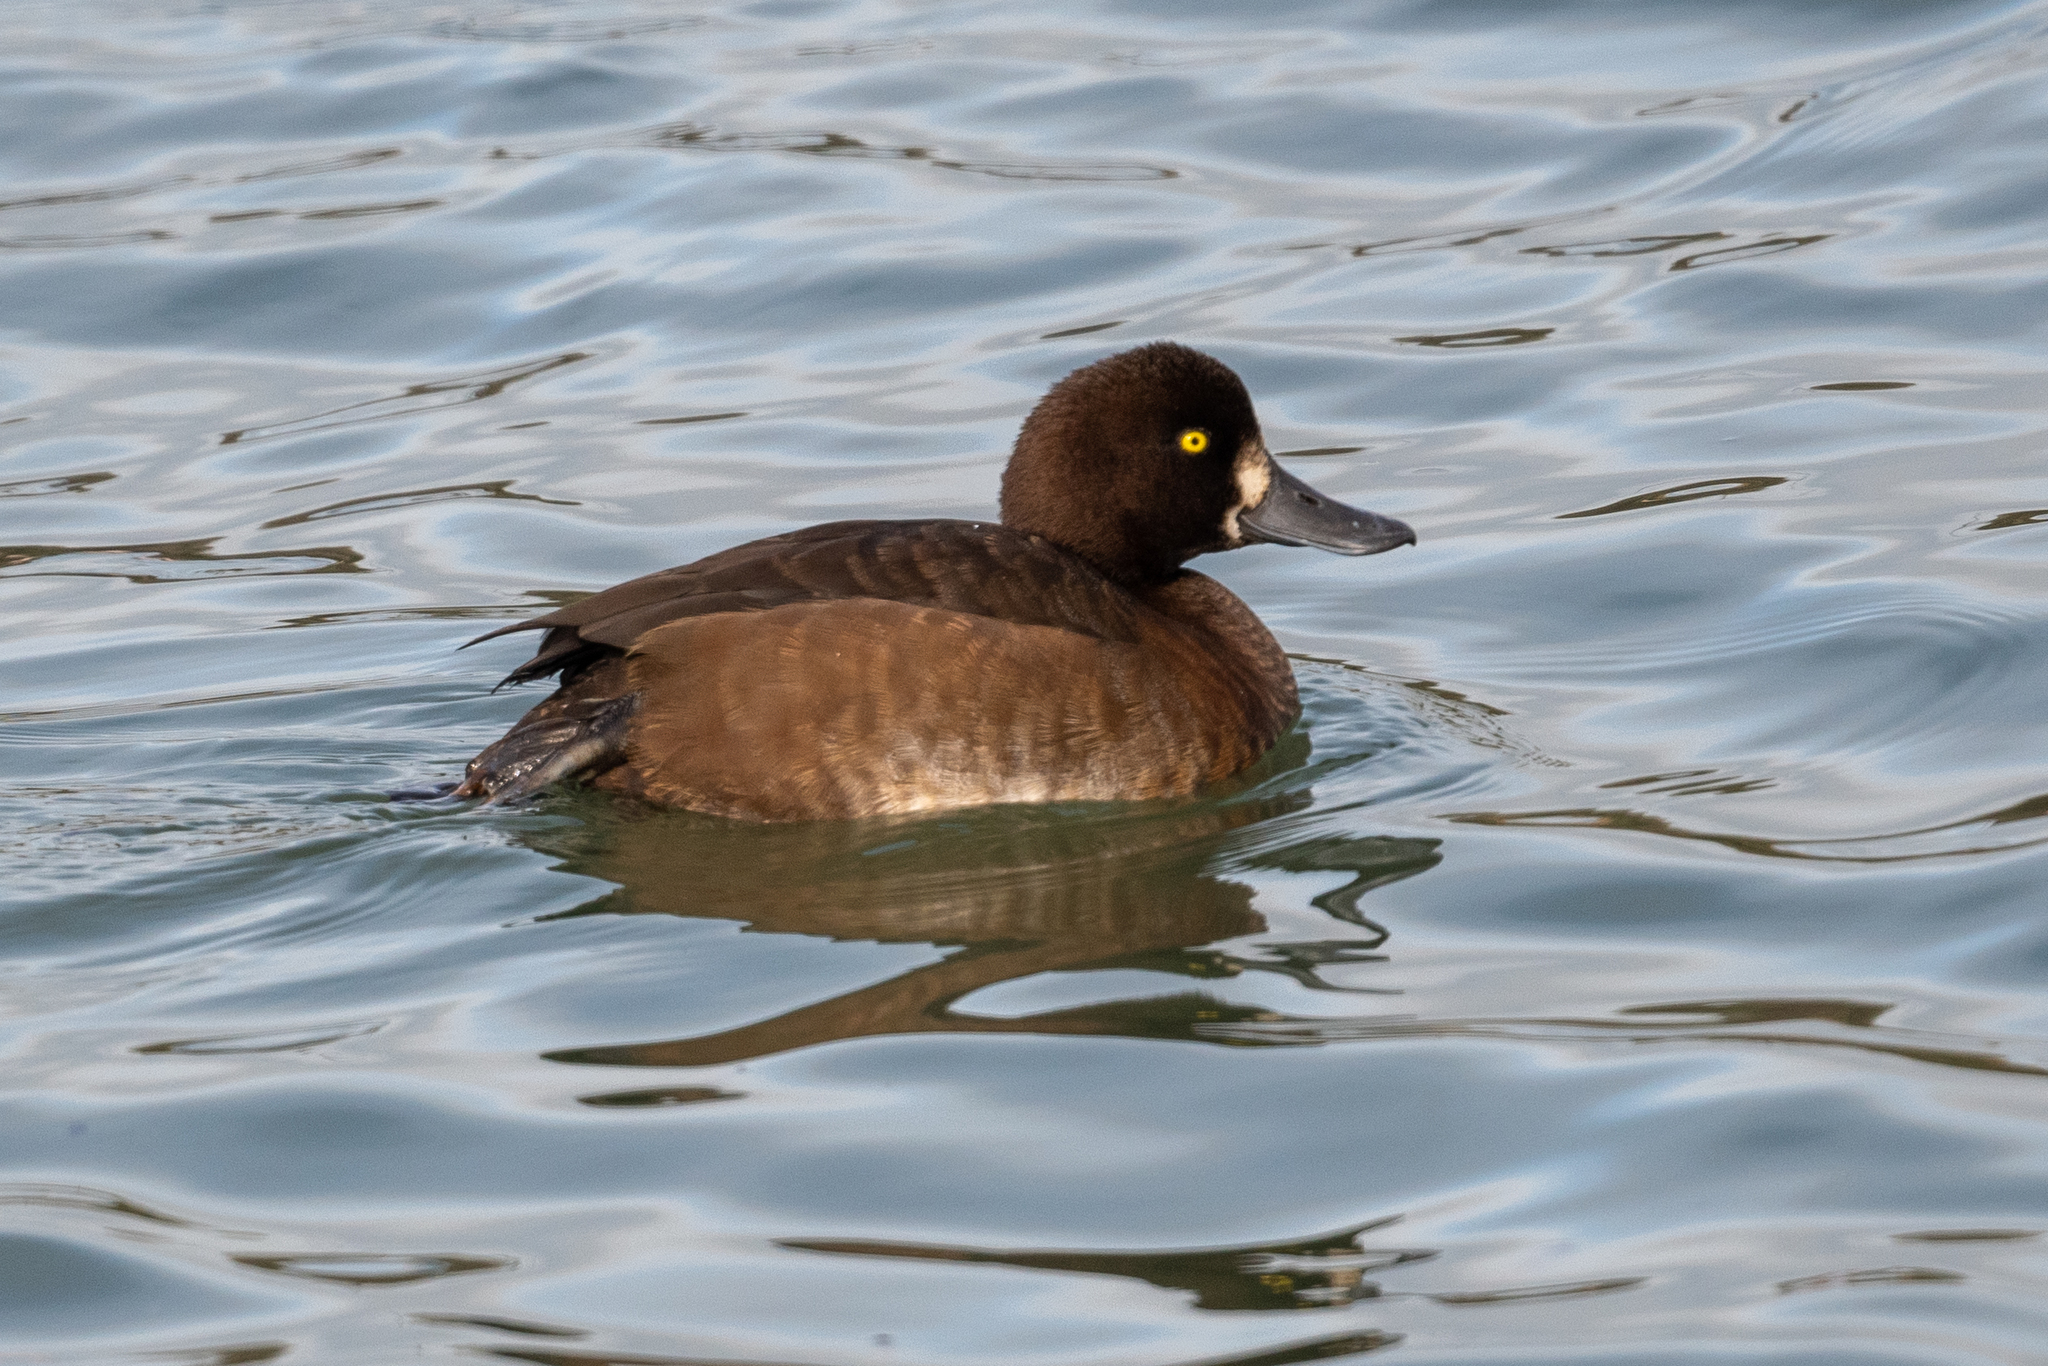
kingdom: Animalia
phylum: Chordata
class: Aves
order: Anseriformes
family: Anatidae
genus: Aythya
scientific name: Aythya marila
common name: Greater scaup
